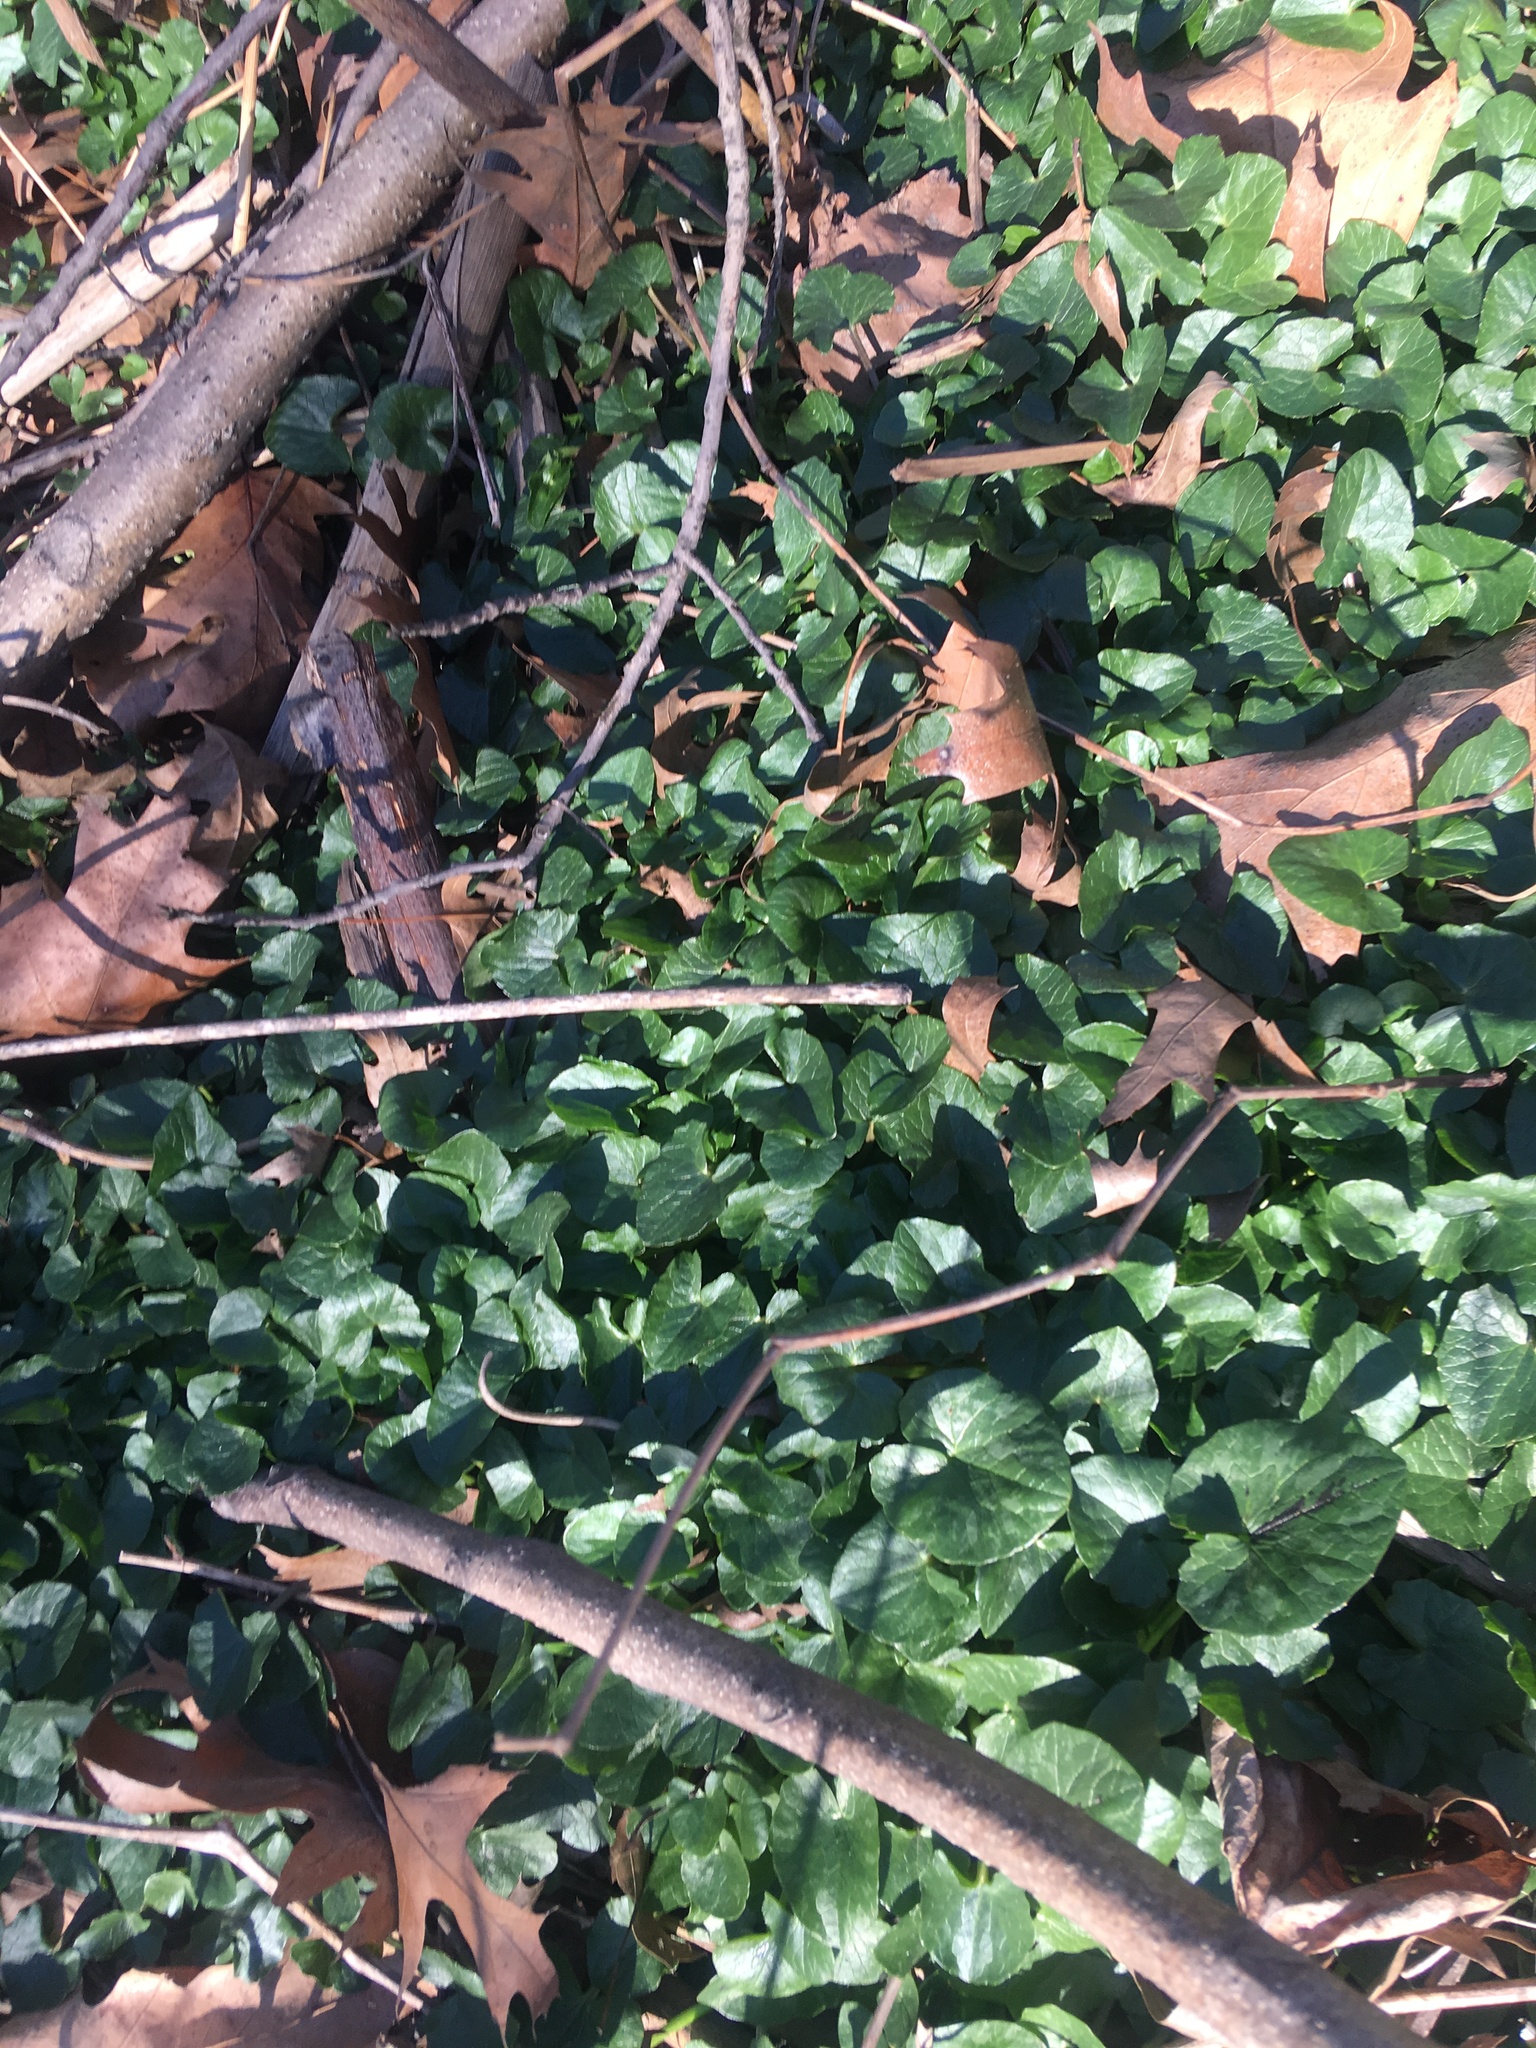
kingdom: Plantae
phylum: Tracheophyta
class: Magnoliopsida
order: Ranunculales
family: Ranunculaceae
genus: Ficaria
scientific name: Ficaria verna
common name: Lesser celandine
